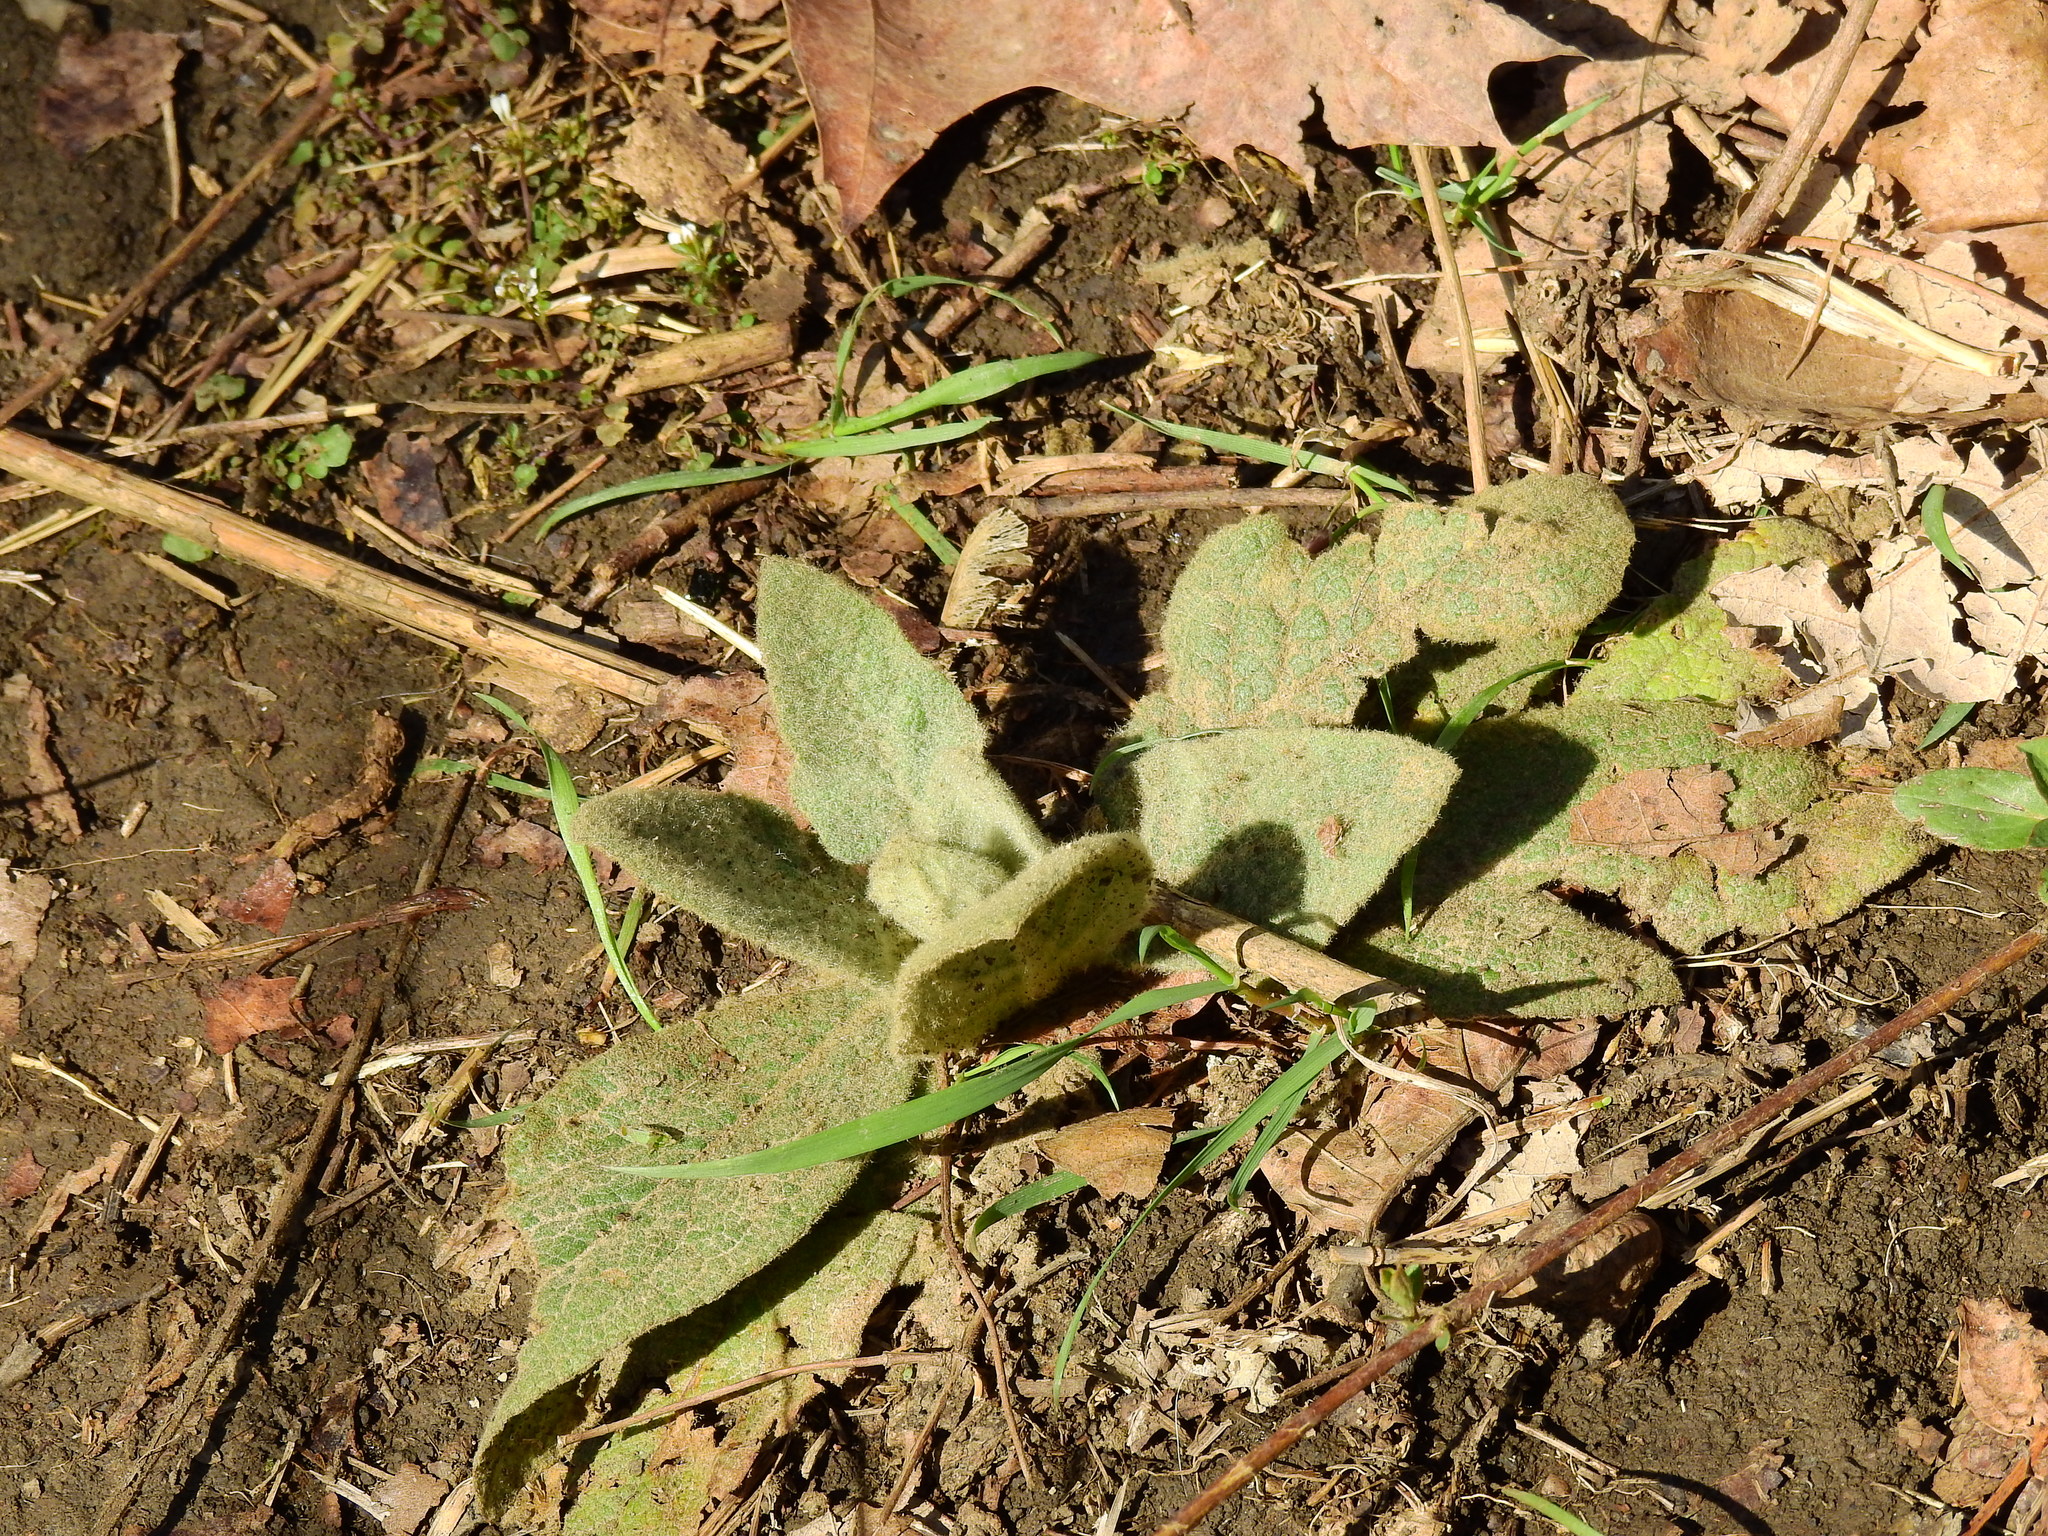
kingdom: Plantae
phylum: Tracheophyta
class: Magnoliopsida
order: Lamiales
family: Scrophulariaceae
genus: Verbascum
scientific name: Verbascum thapsus
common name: Common mullein
